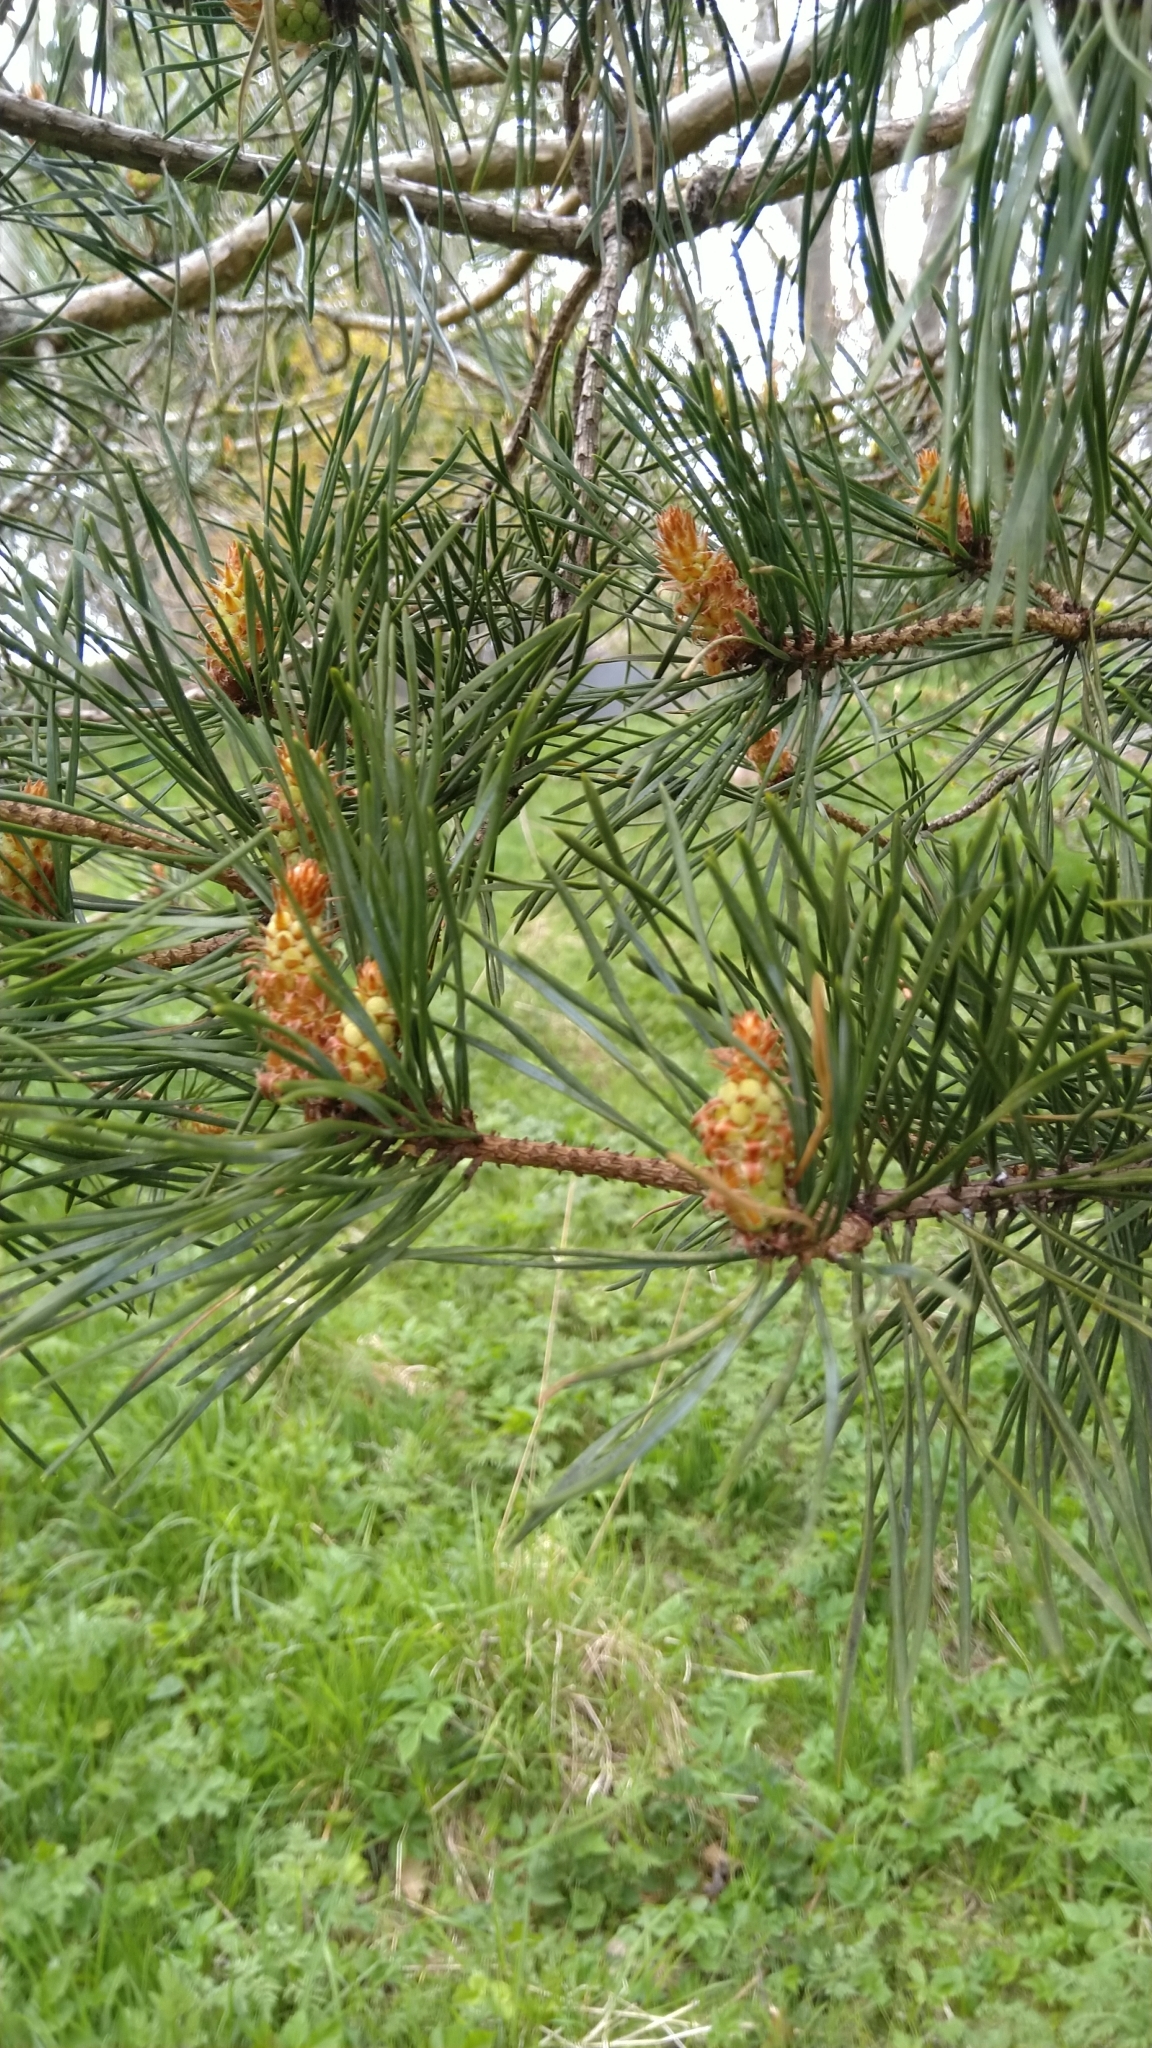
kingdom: Plantae
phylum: Tracheophyta
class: Pinopsida
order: Pinales
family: Pinaceae
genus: Pinus
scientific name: Pinus sylvestris
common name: Scots pine
